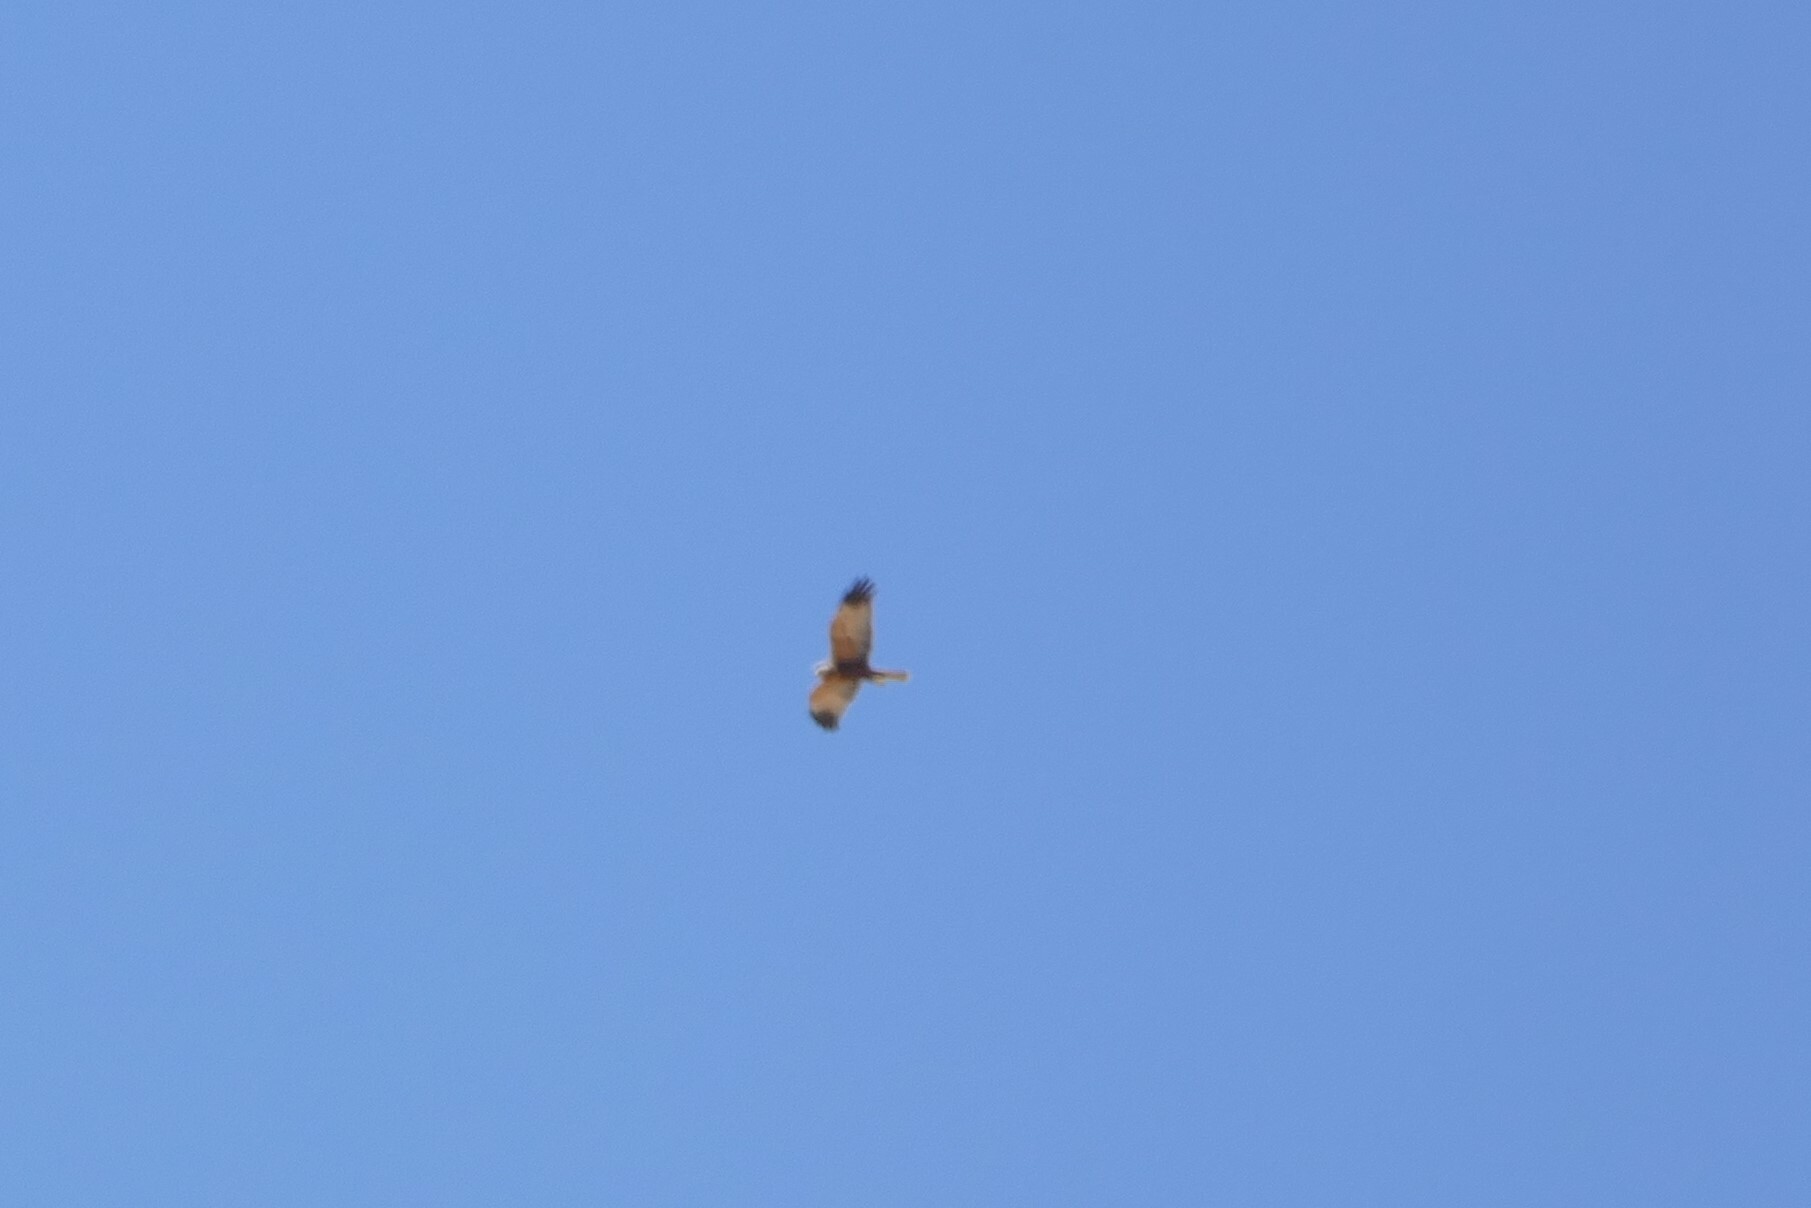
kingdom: Animalia
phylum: Chordata
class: Aves
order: Accipitriformes
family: Accipitridae
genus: Circus
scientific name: Circus aeruginosus
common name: Western marsh harrier
